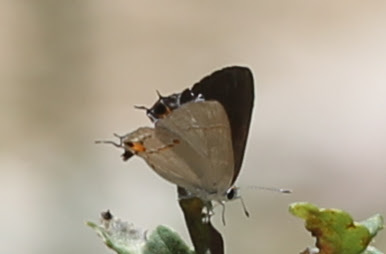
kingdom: Animalia
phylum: Arthropoda
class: Insecta
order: Lepidoptera
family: Lycaenidae
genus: Strymon
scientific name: Strymon melinus
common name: Gray hairstreak
